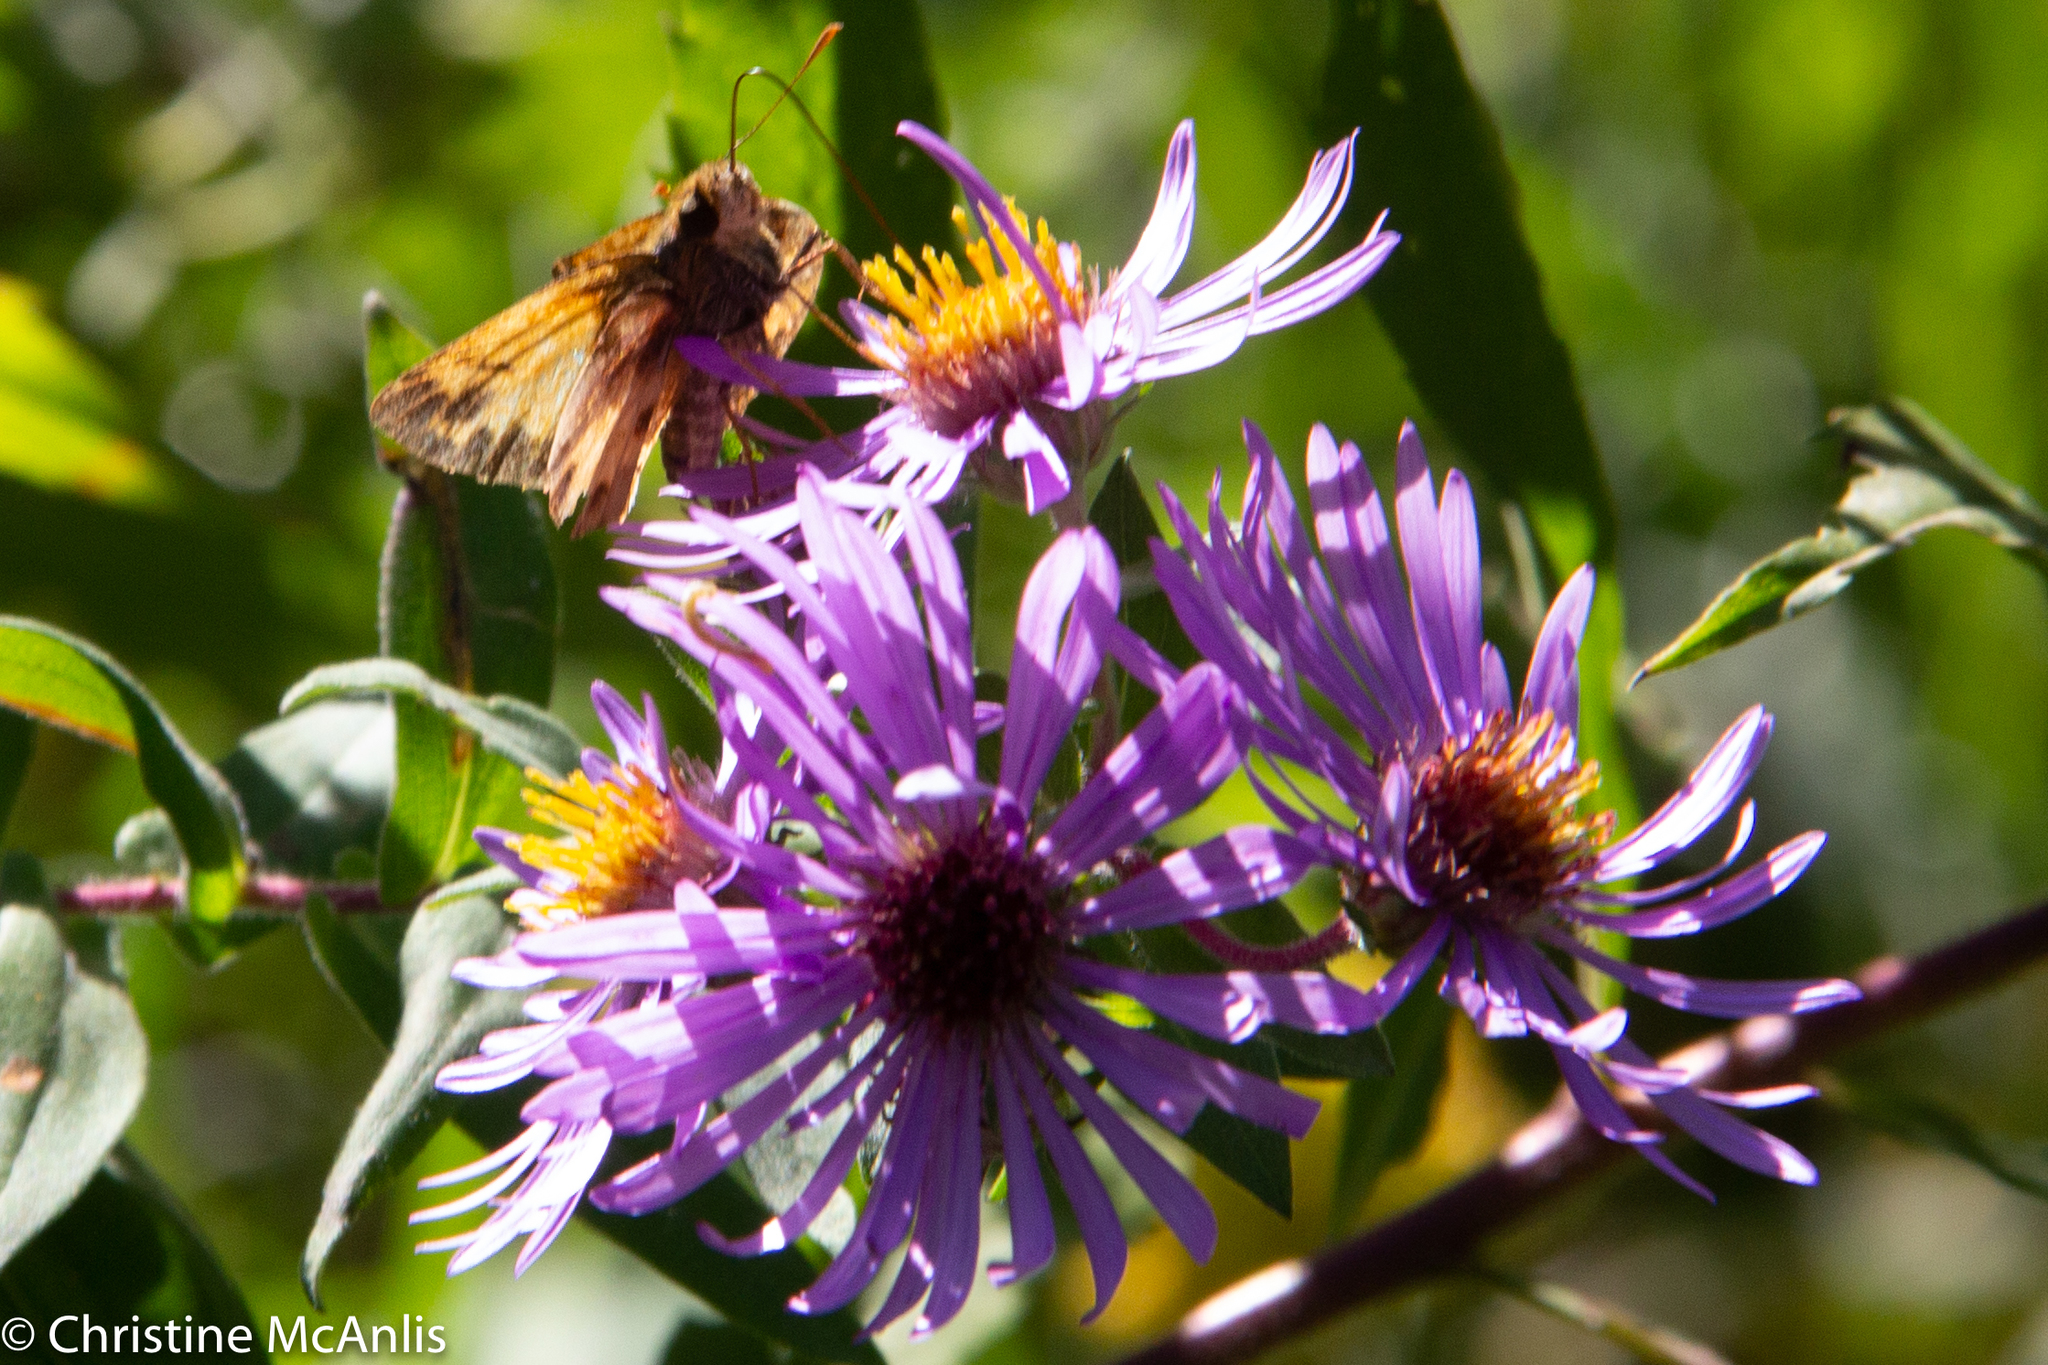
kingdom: Animalia
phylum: Arthropoda
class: Insecta
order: Lepidoptera
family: Hesperiidae
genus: Lon
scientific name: Lon zabulon
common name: Zabulon skipper
